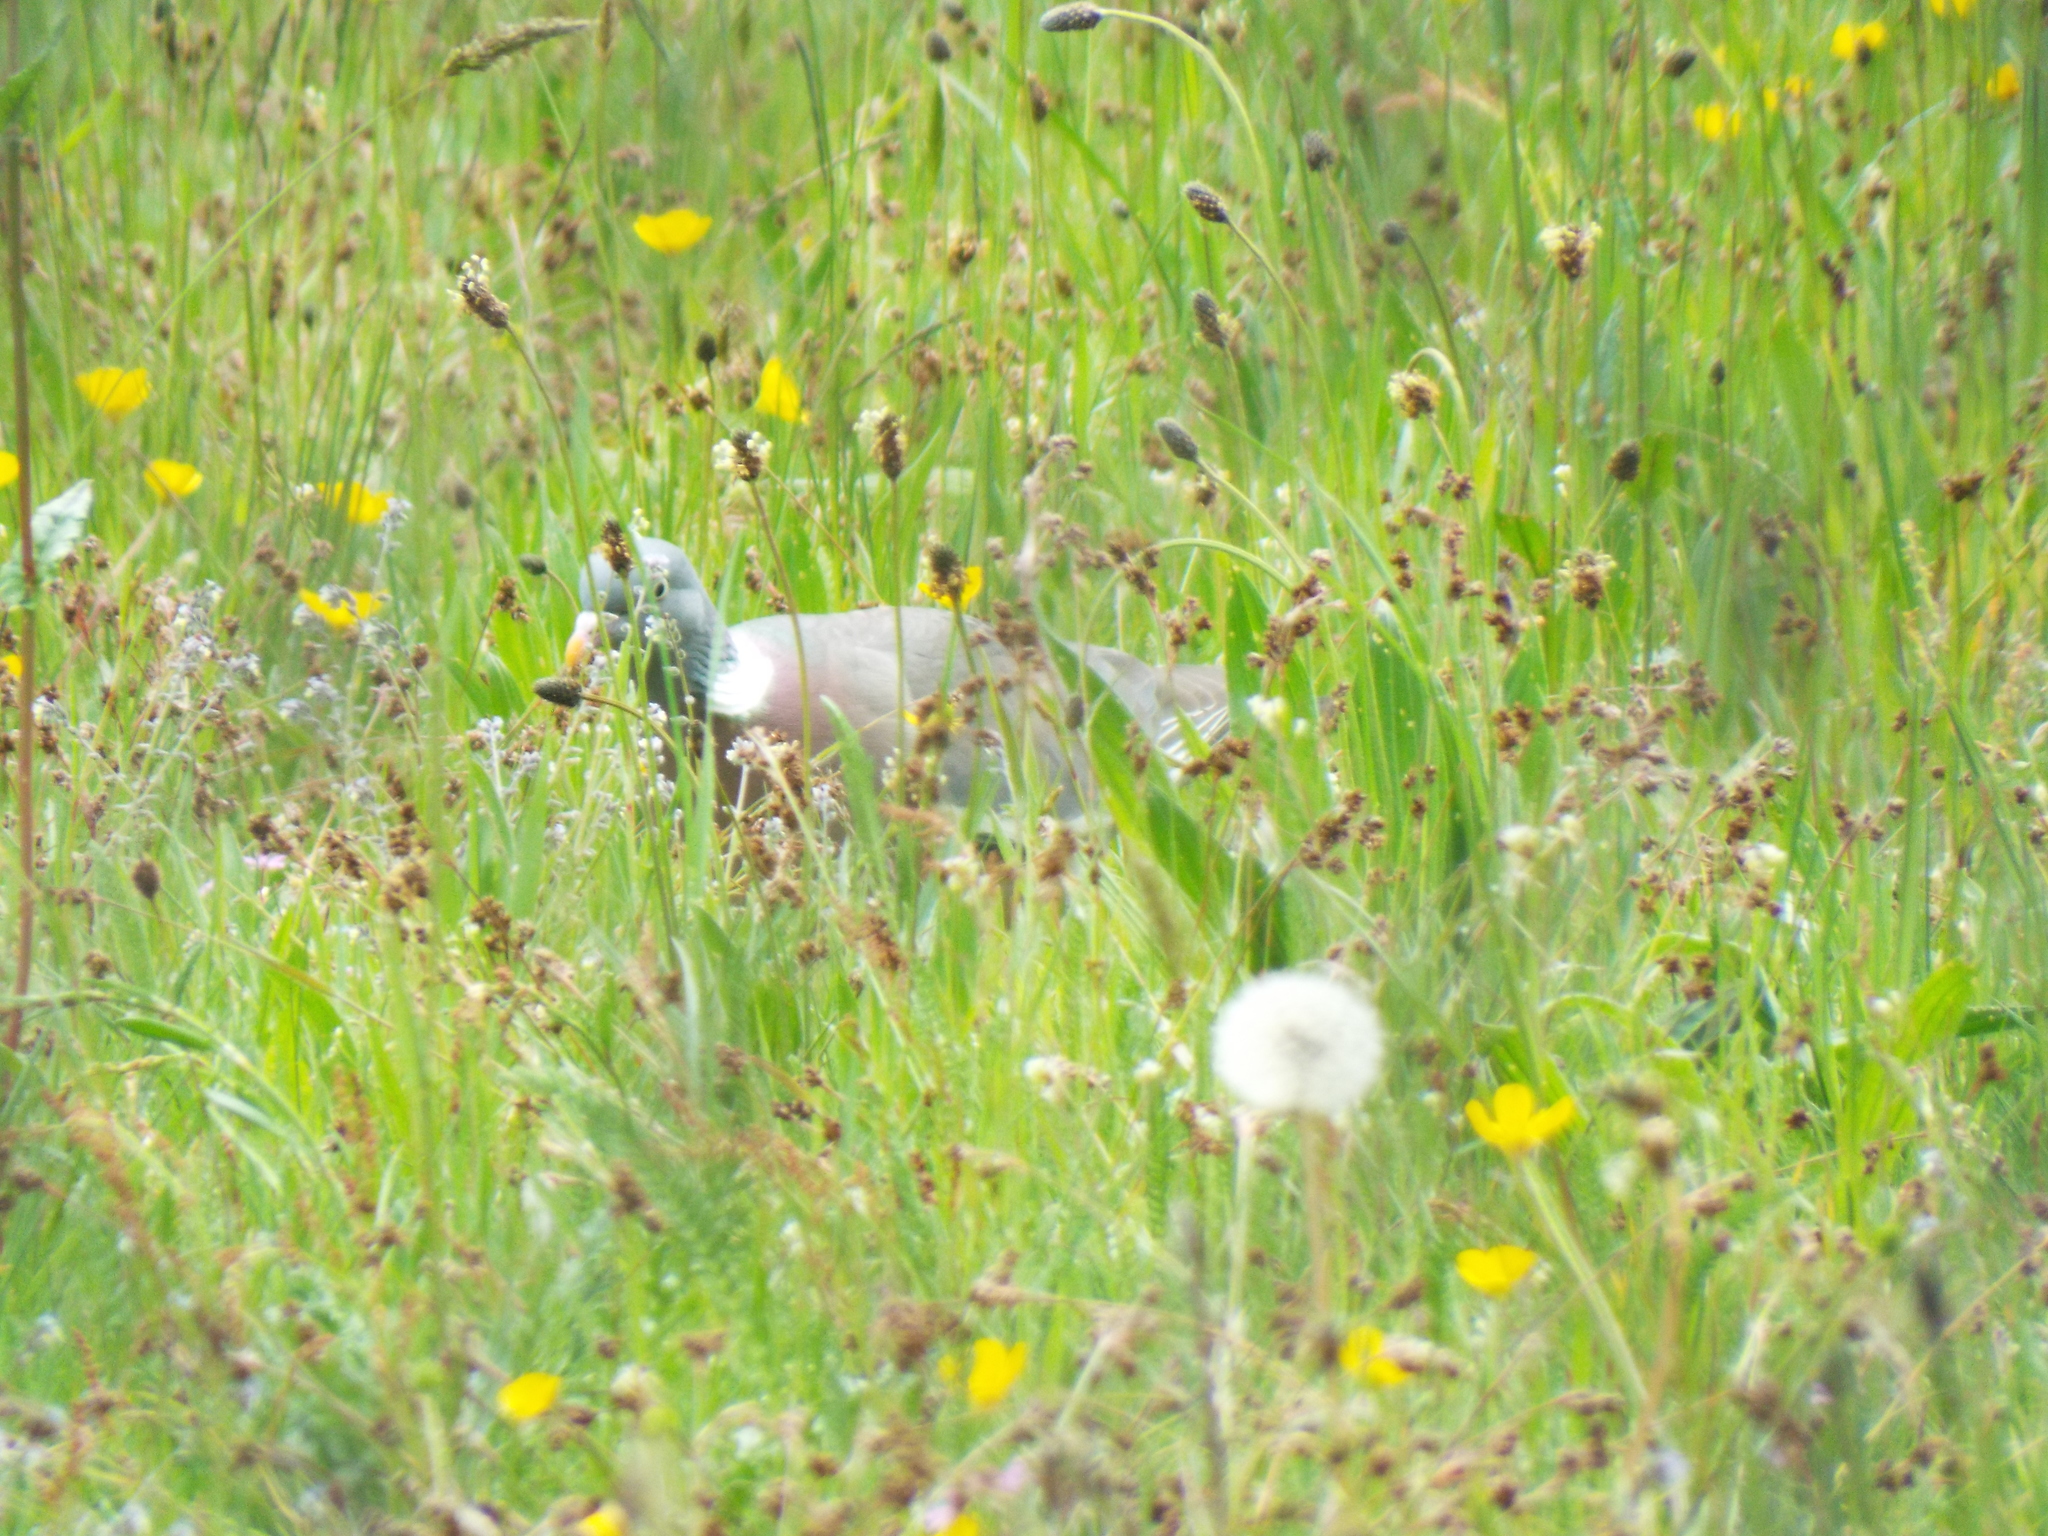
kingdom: Animalia
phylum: Chordata
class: Aves
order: Columbiformes
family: Columbidae
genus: Columba
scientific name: Columba palumbus
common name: Common wood pigeon
